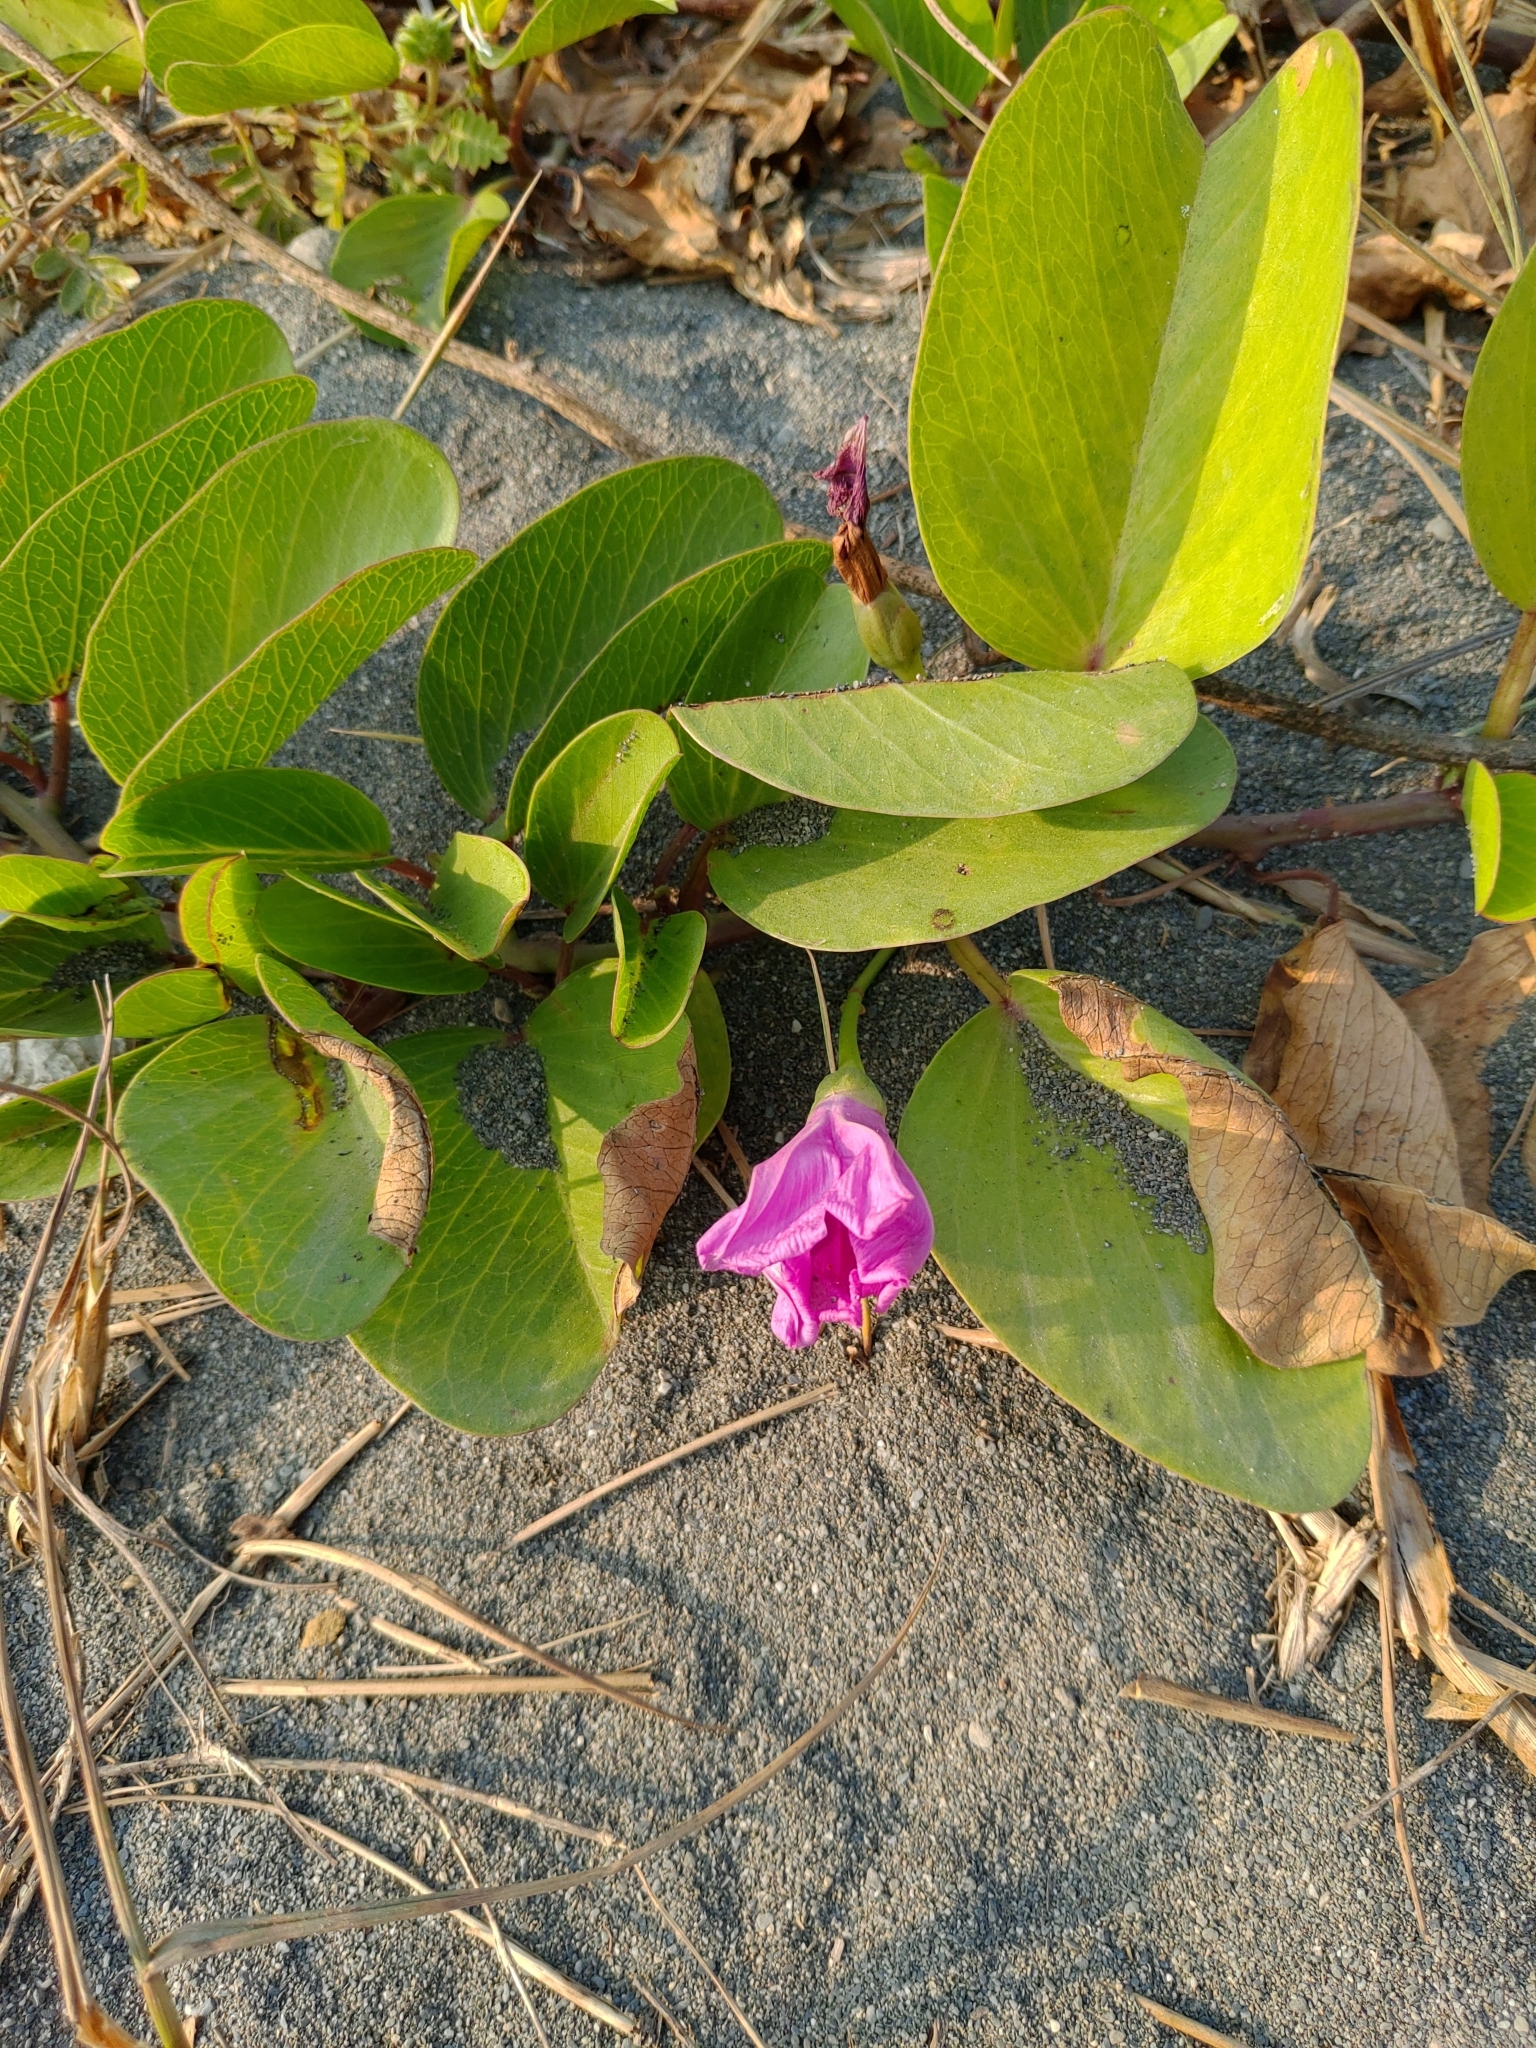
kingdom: Plantae
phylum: Tracheophyta
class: Magnoliopsida
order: Solanales
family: Convolvulaceae
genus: Ipomoea
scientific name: Ipomoea pes-caprae
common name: Beach morning glory
